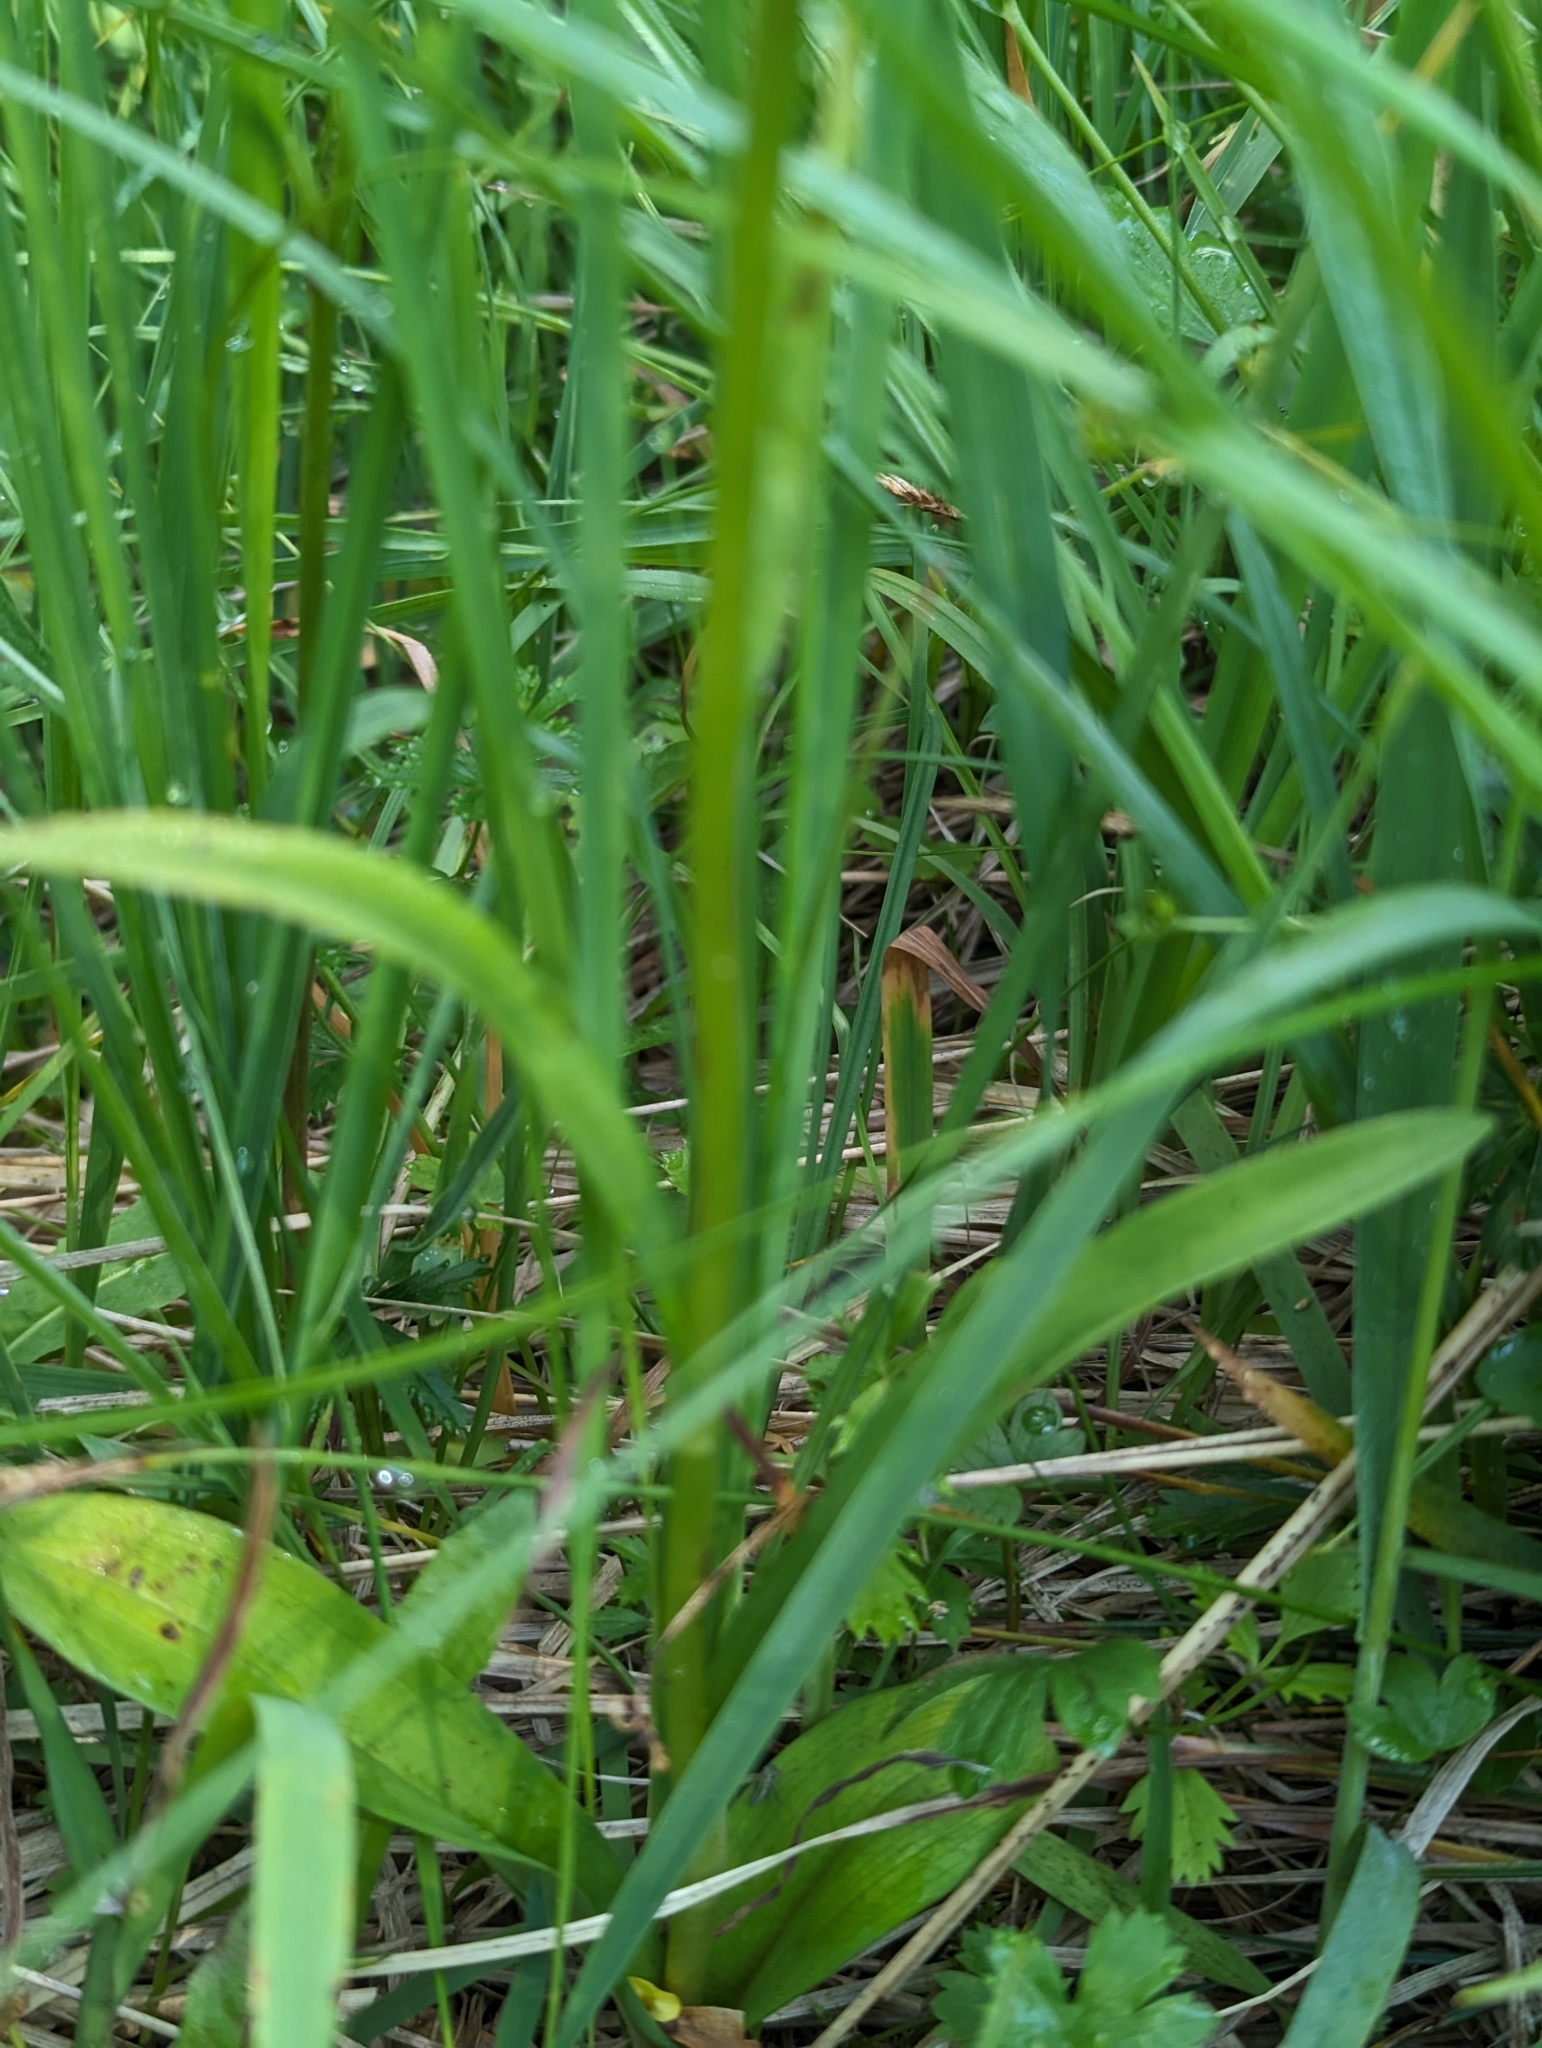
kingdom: Plantae
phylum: Tracheophyta
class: Liliopsida
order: Asparagales
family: Orchidaceae
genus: Dactylorhiza
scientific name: Dactylorhiza maculata
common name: Heath spotted-orchid
